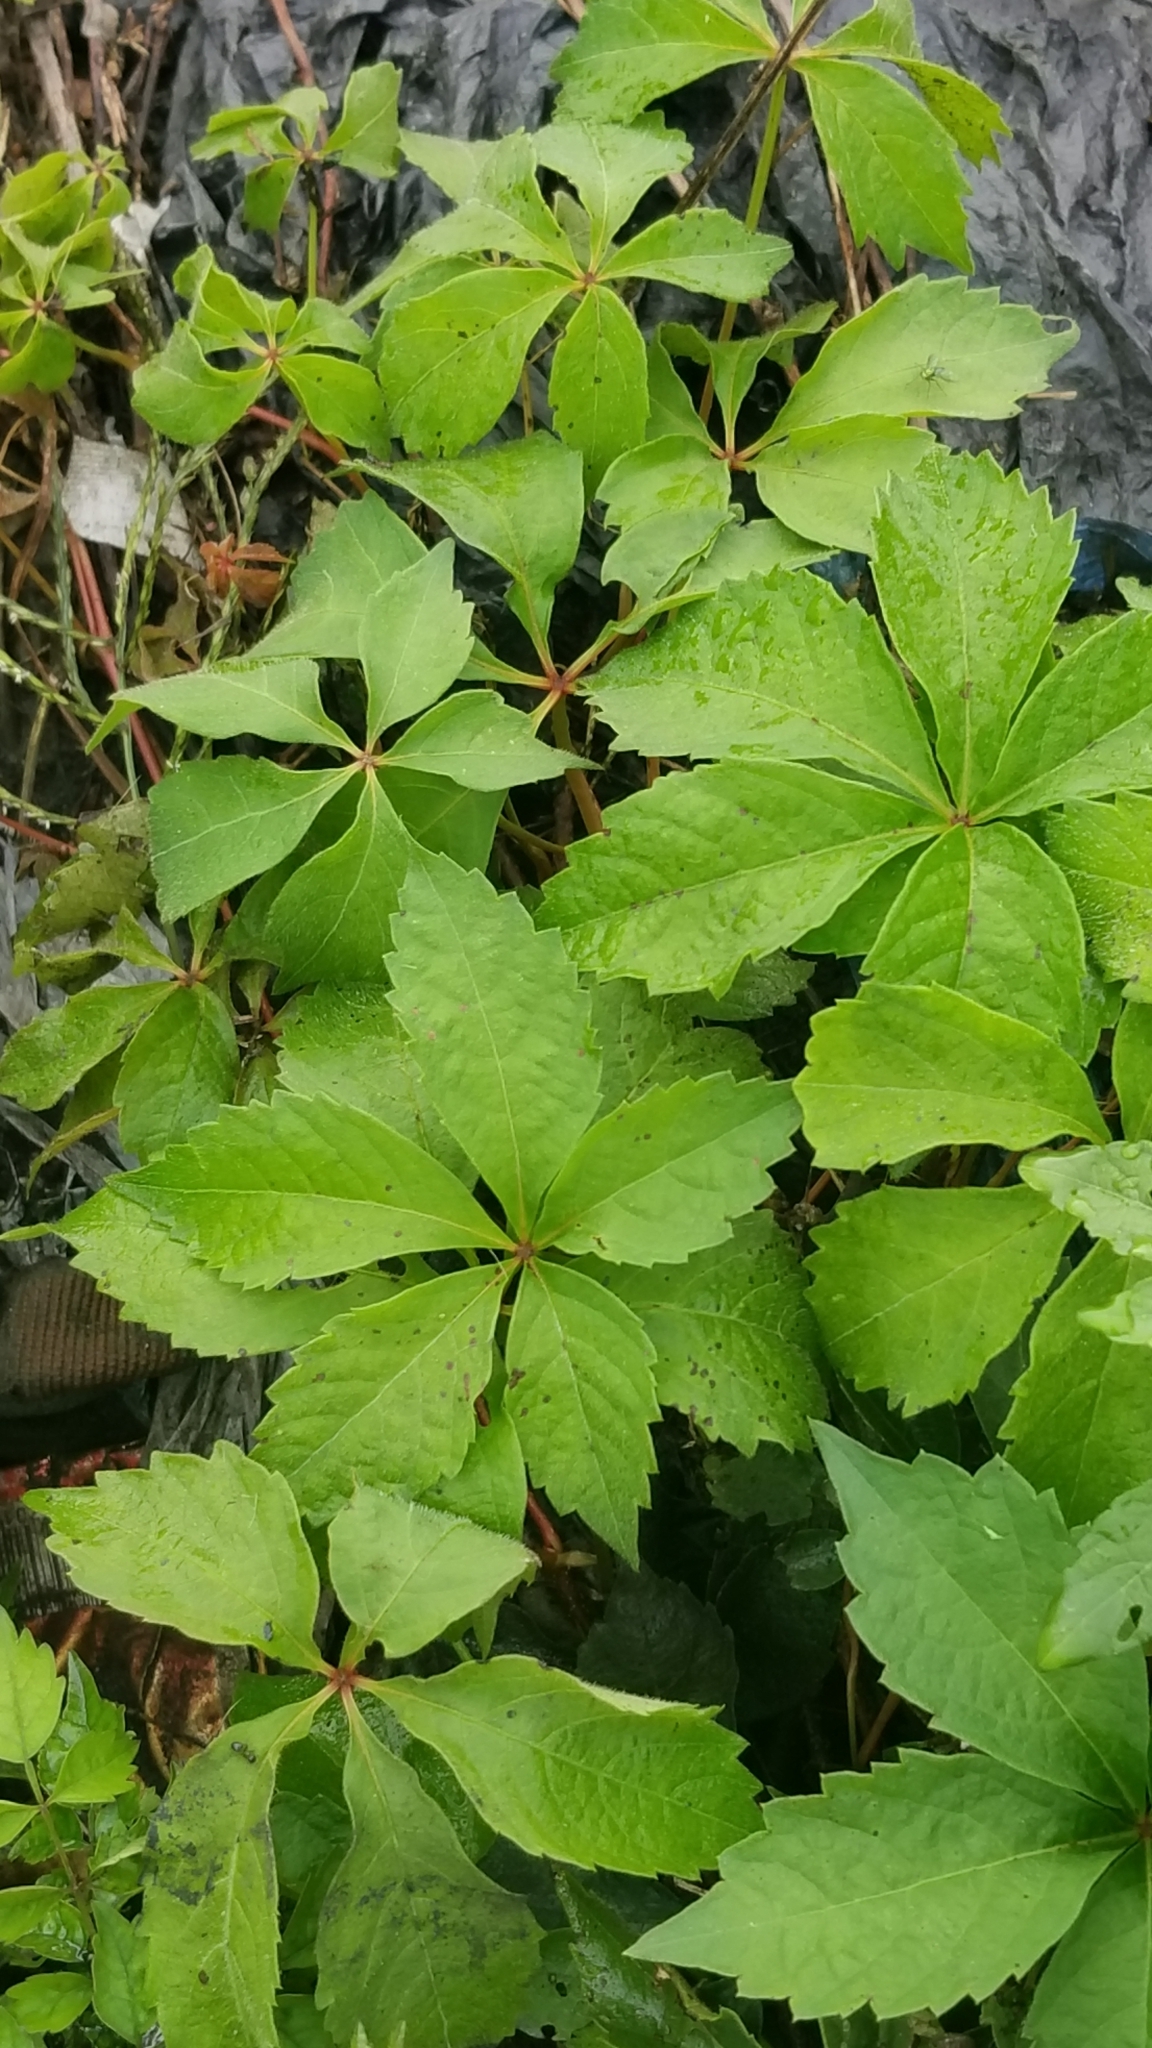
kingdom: Plantae
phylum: Tracheophyta
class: Magnoliopsida
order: Vitales
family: Vitaceae
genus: Parthenocissus
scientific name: Parthenocissus quinquefolia
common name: Virginia-creeper
